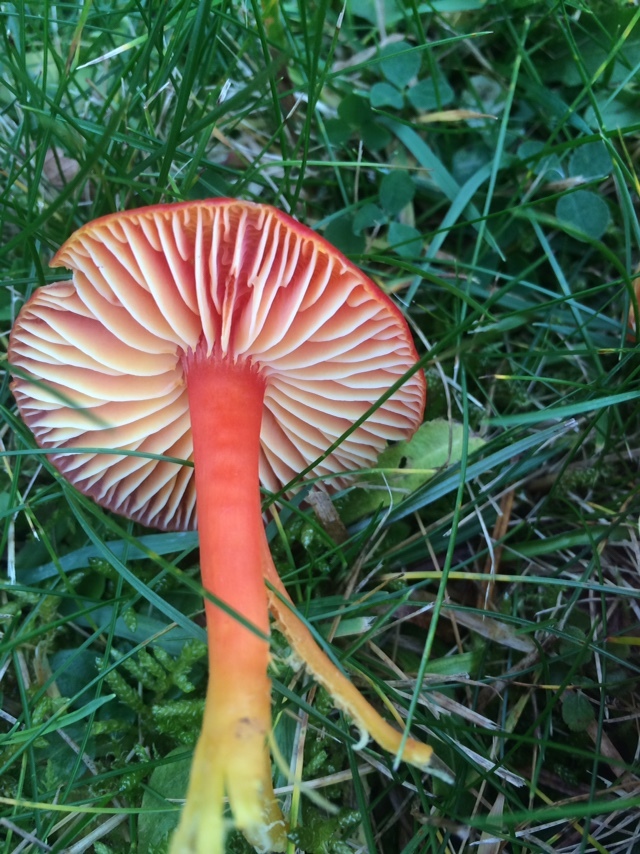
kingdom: Fungi
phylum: Basidiomycota
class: Agaricomycetes
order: Agaricales
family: Hygrophoraceae
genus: Hygrocybe
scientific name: Hygrocybe coccinea
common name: Scarlet hood
